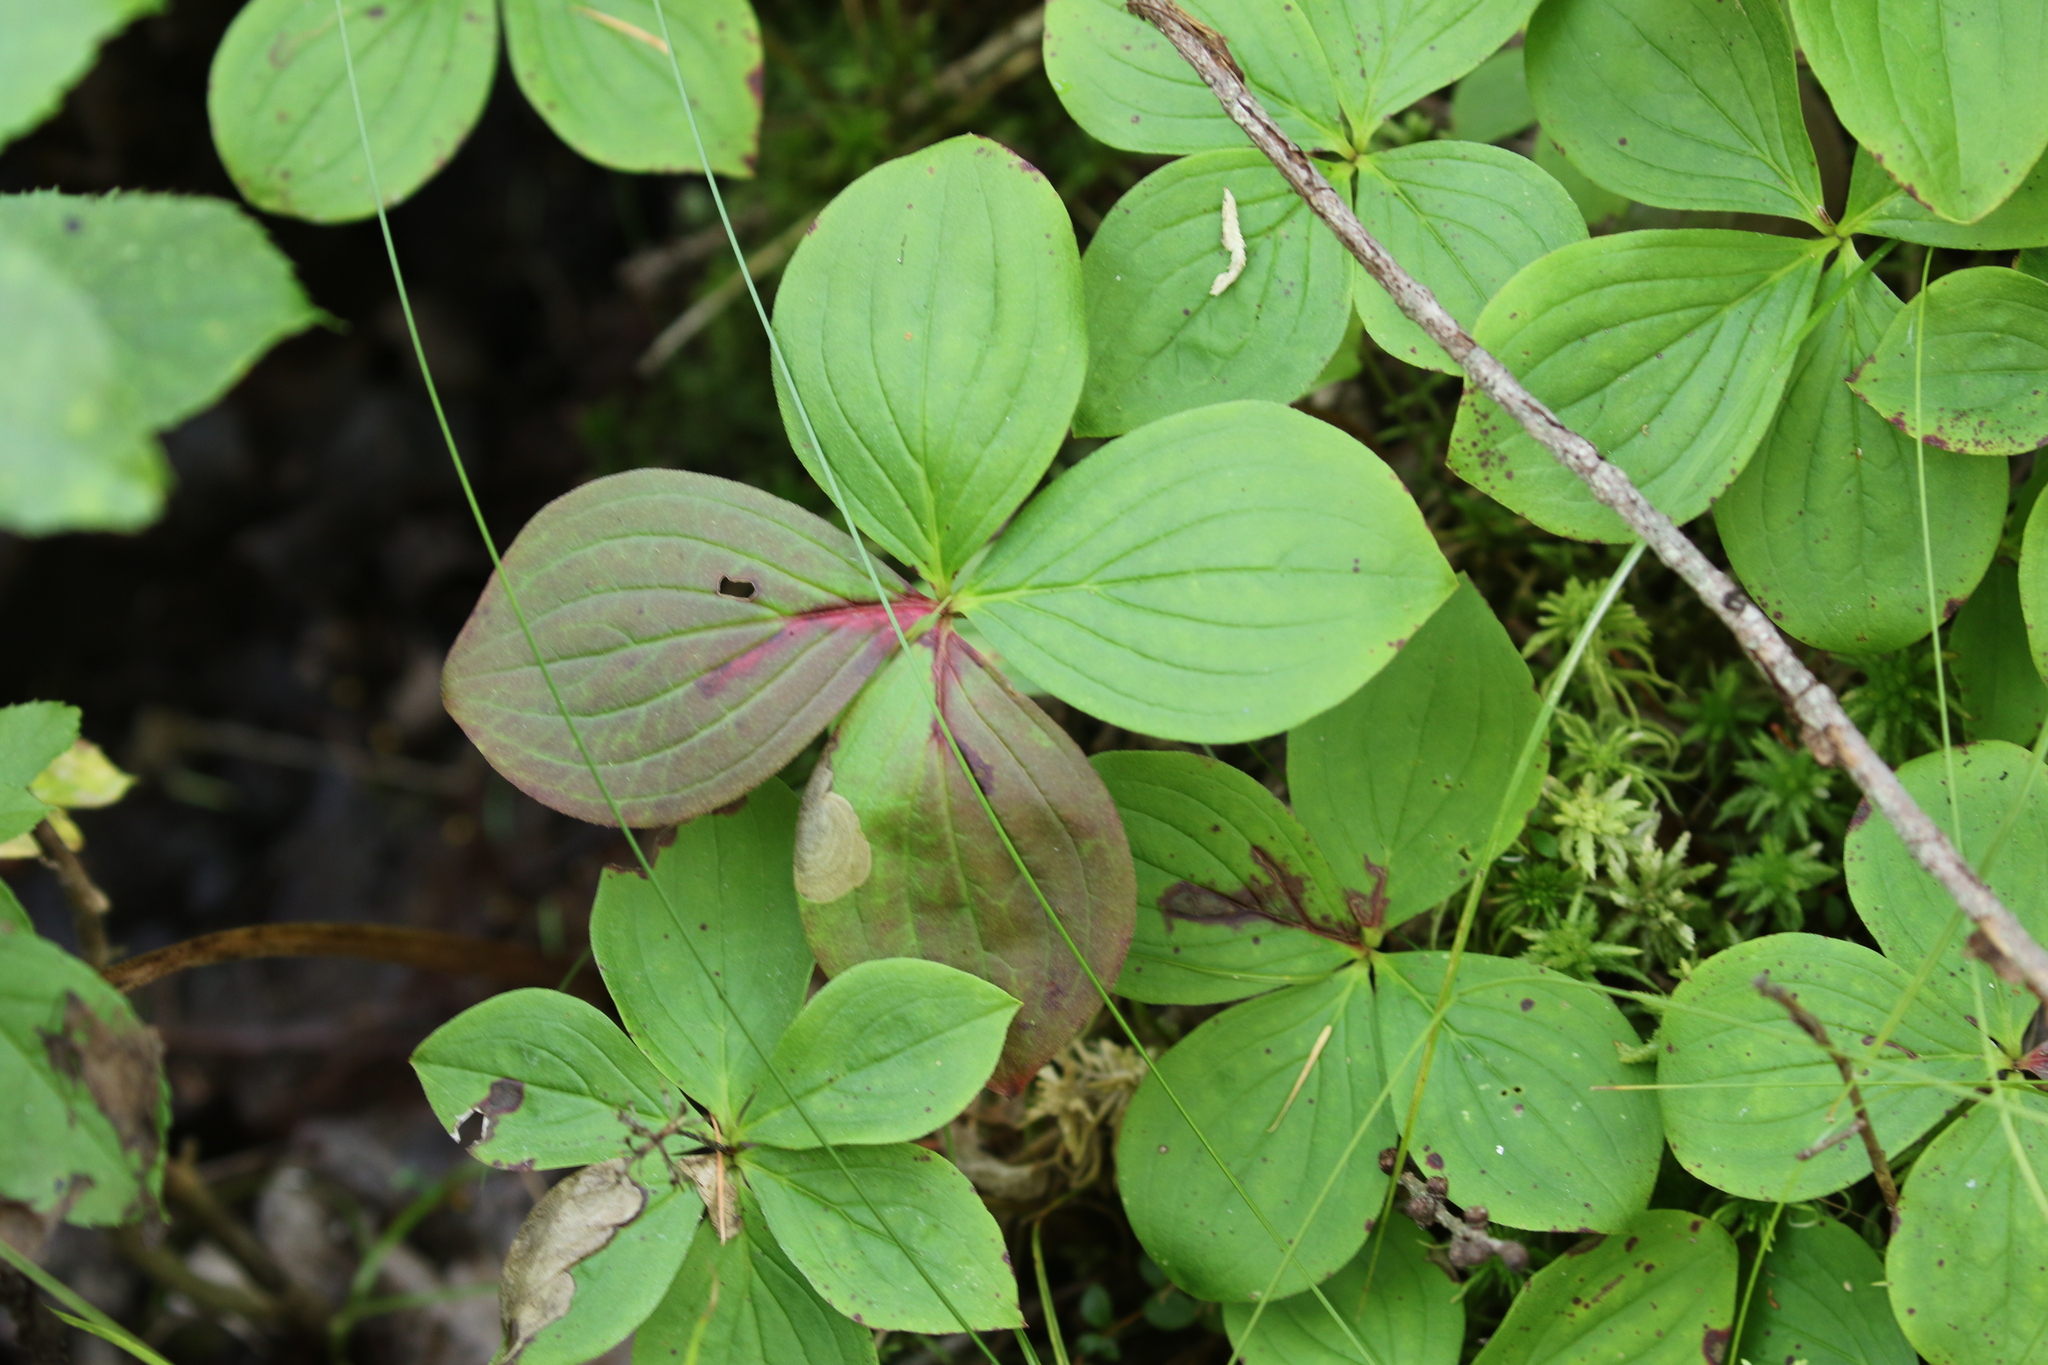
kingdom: Plantae
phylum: Tracheophyta
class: Magnoliopsida
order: Cornales
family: Cornaceae
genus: Cornus
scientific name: Cornus canadensis
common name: Creeping dogwood
